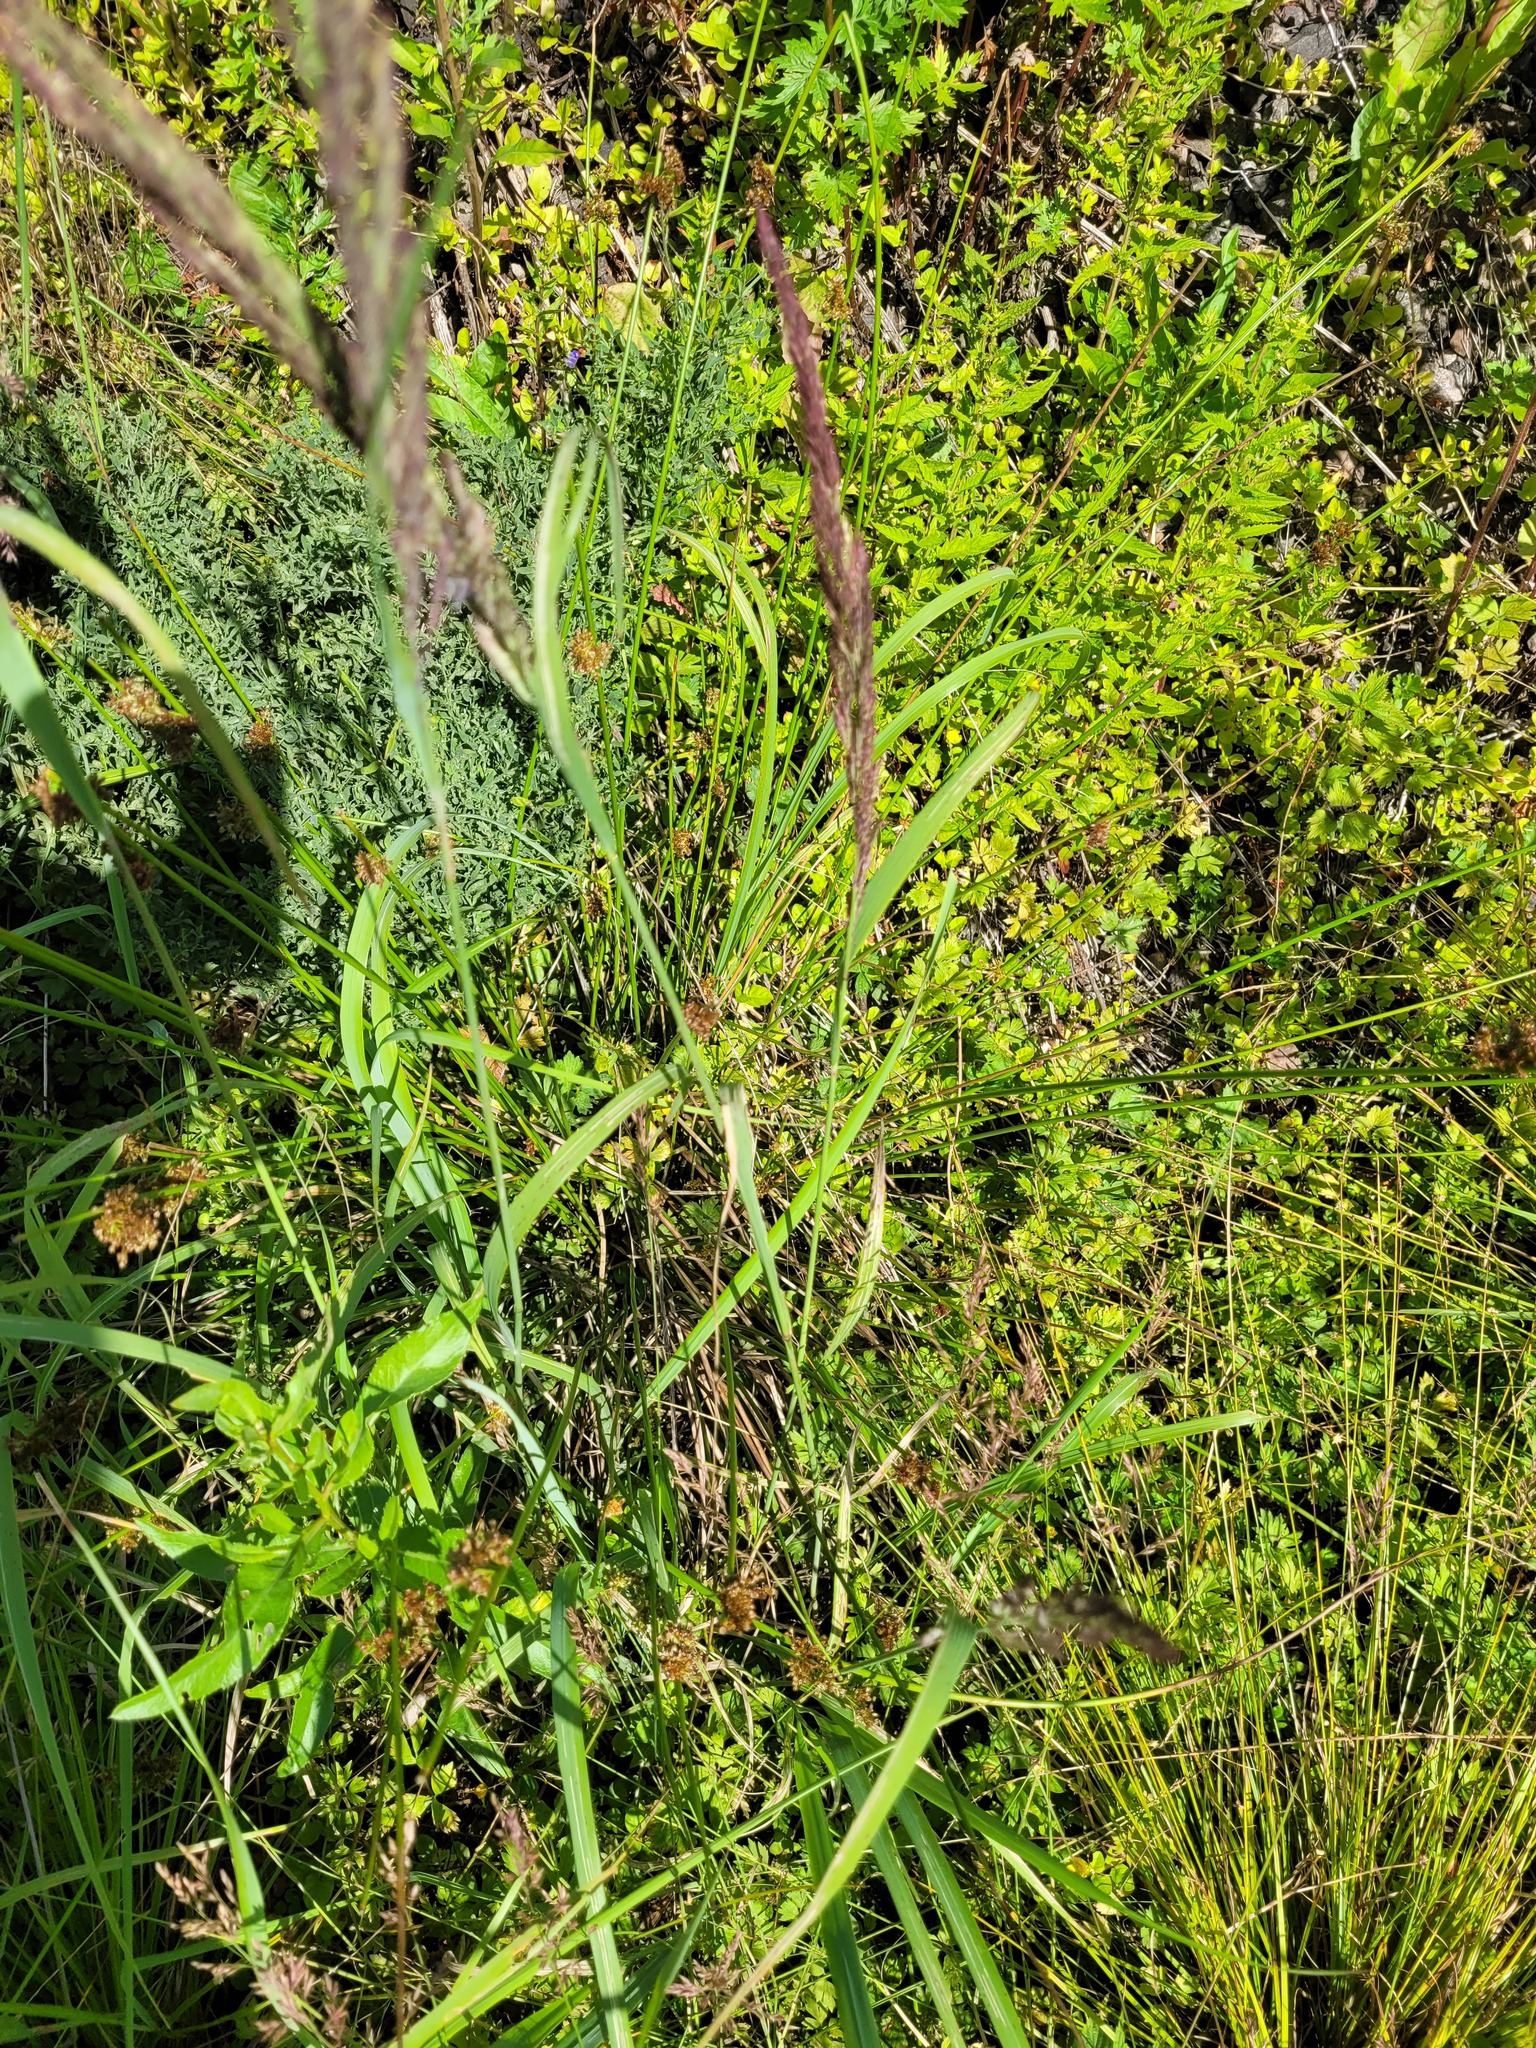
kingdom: Plantae
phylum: Tracheophyta
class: Liliopsida
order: Poales
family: Poaceae
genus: Calamagrostis
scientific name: Calamagrostis epigejos
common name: Wood small-reed
